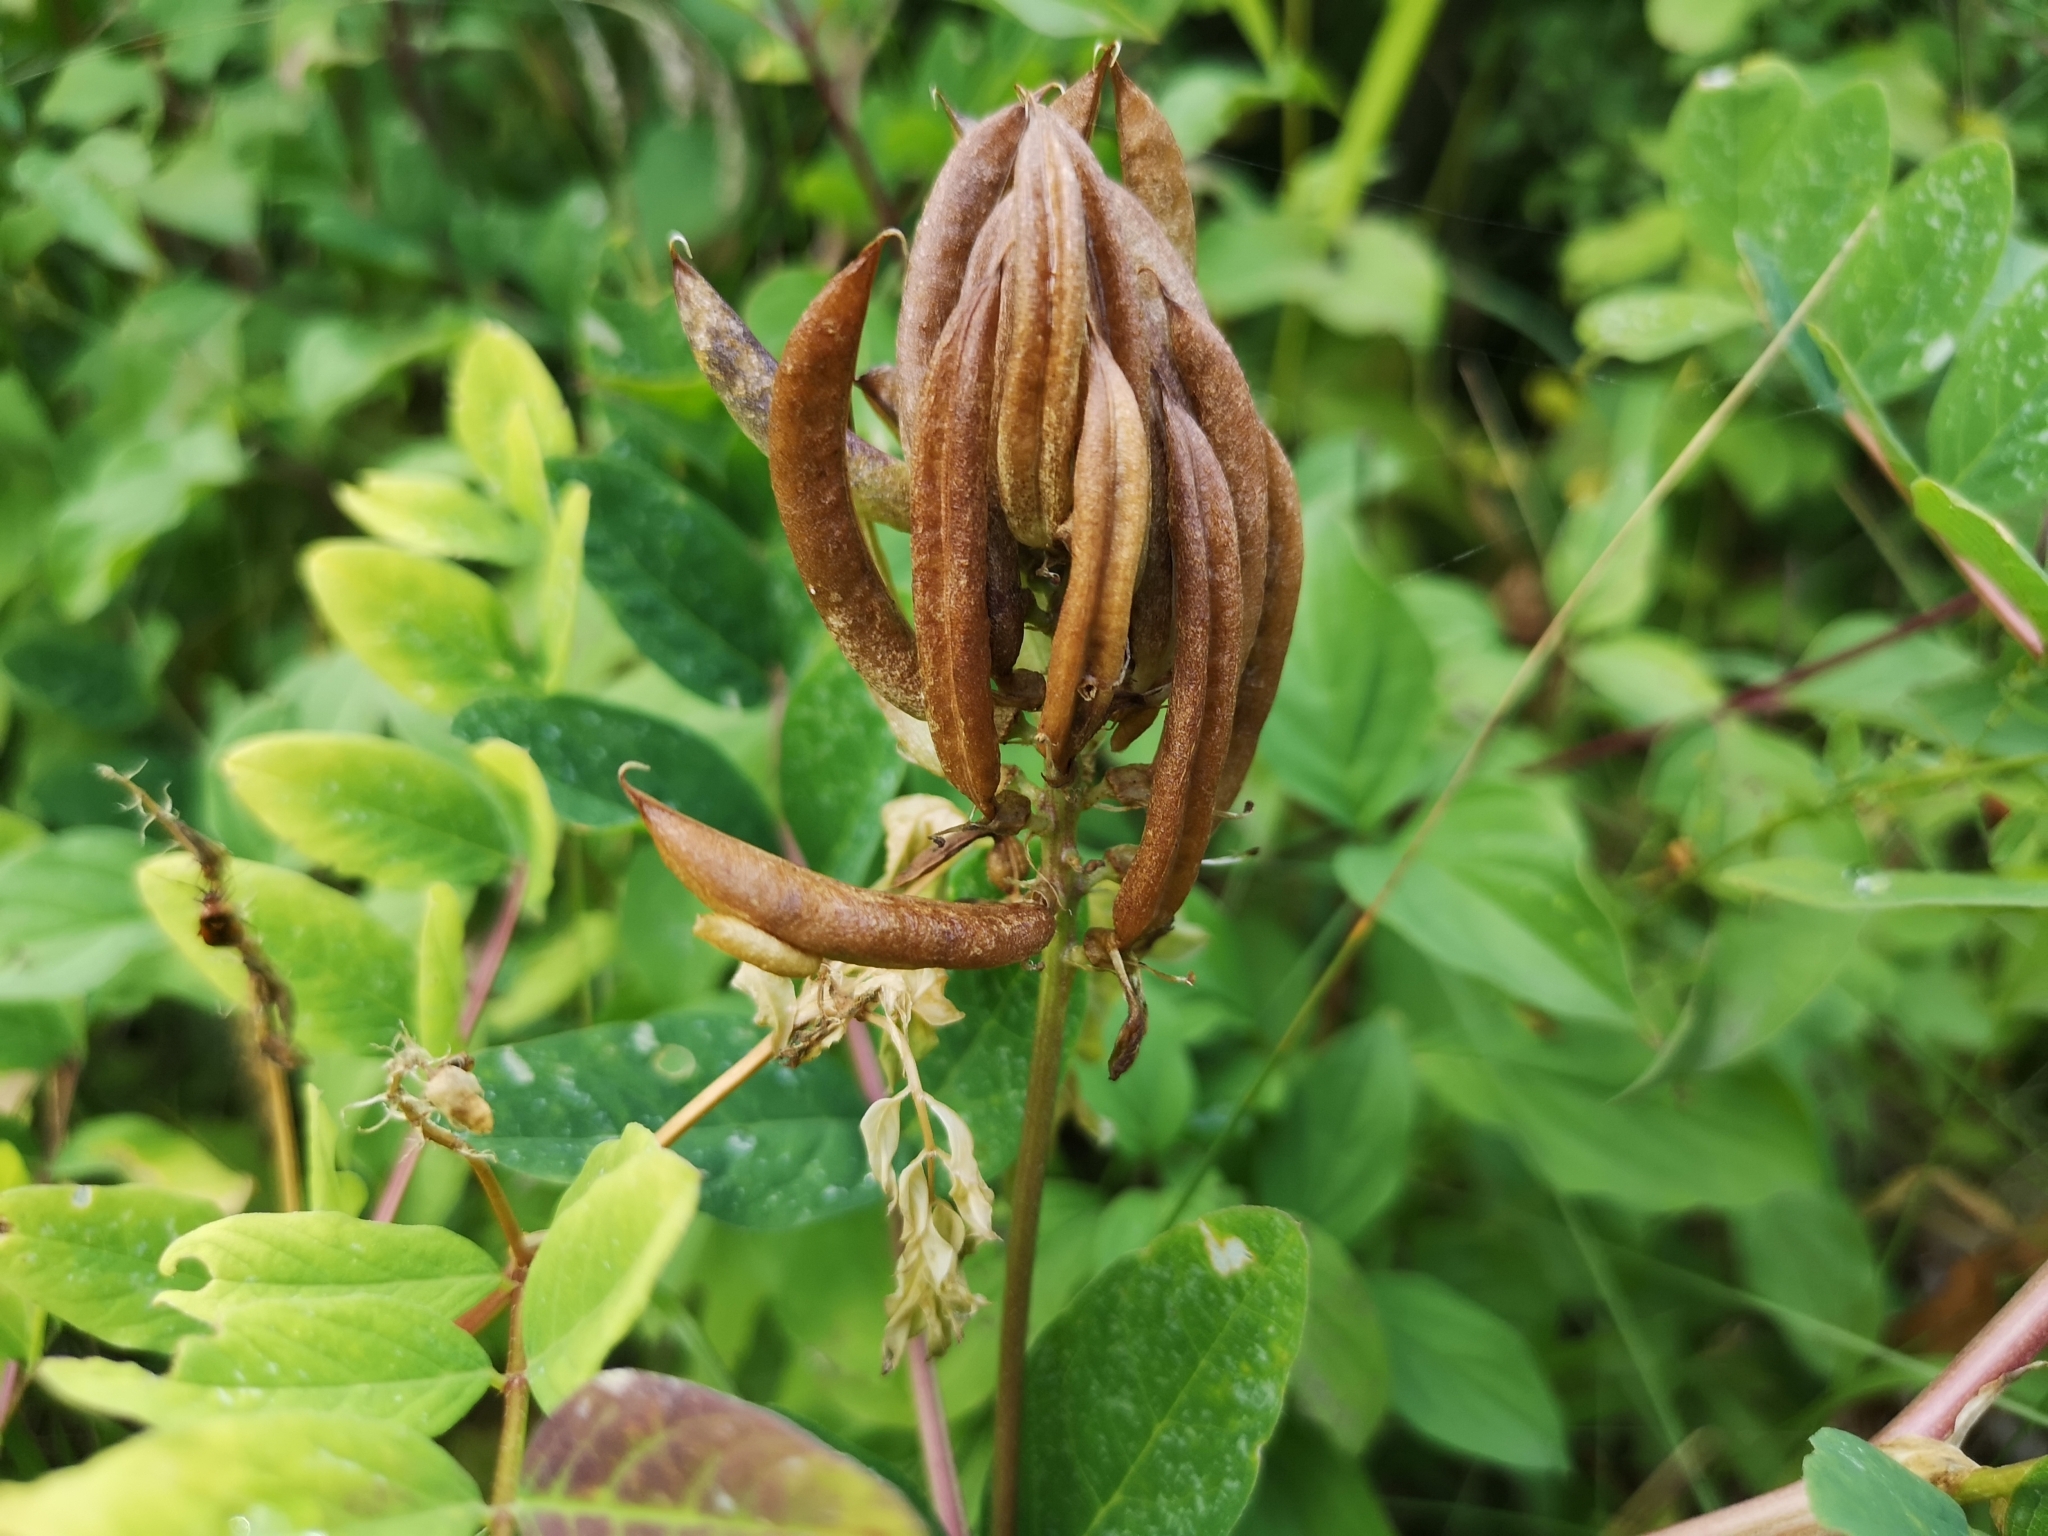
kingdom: Plantae
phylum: Tracheophyta
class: Magnoliopsida
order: Fabales
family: Fabaceae
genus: Astragalus
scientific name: Astragalus glycyphyllos
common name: Wild liquorice
